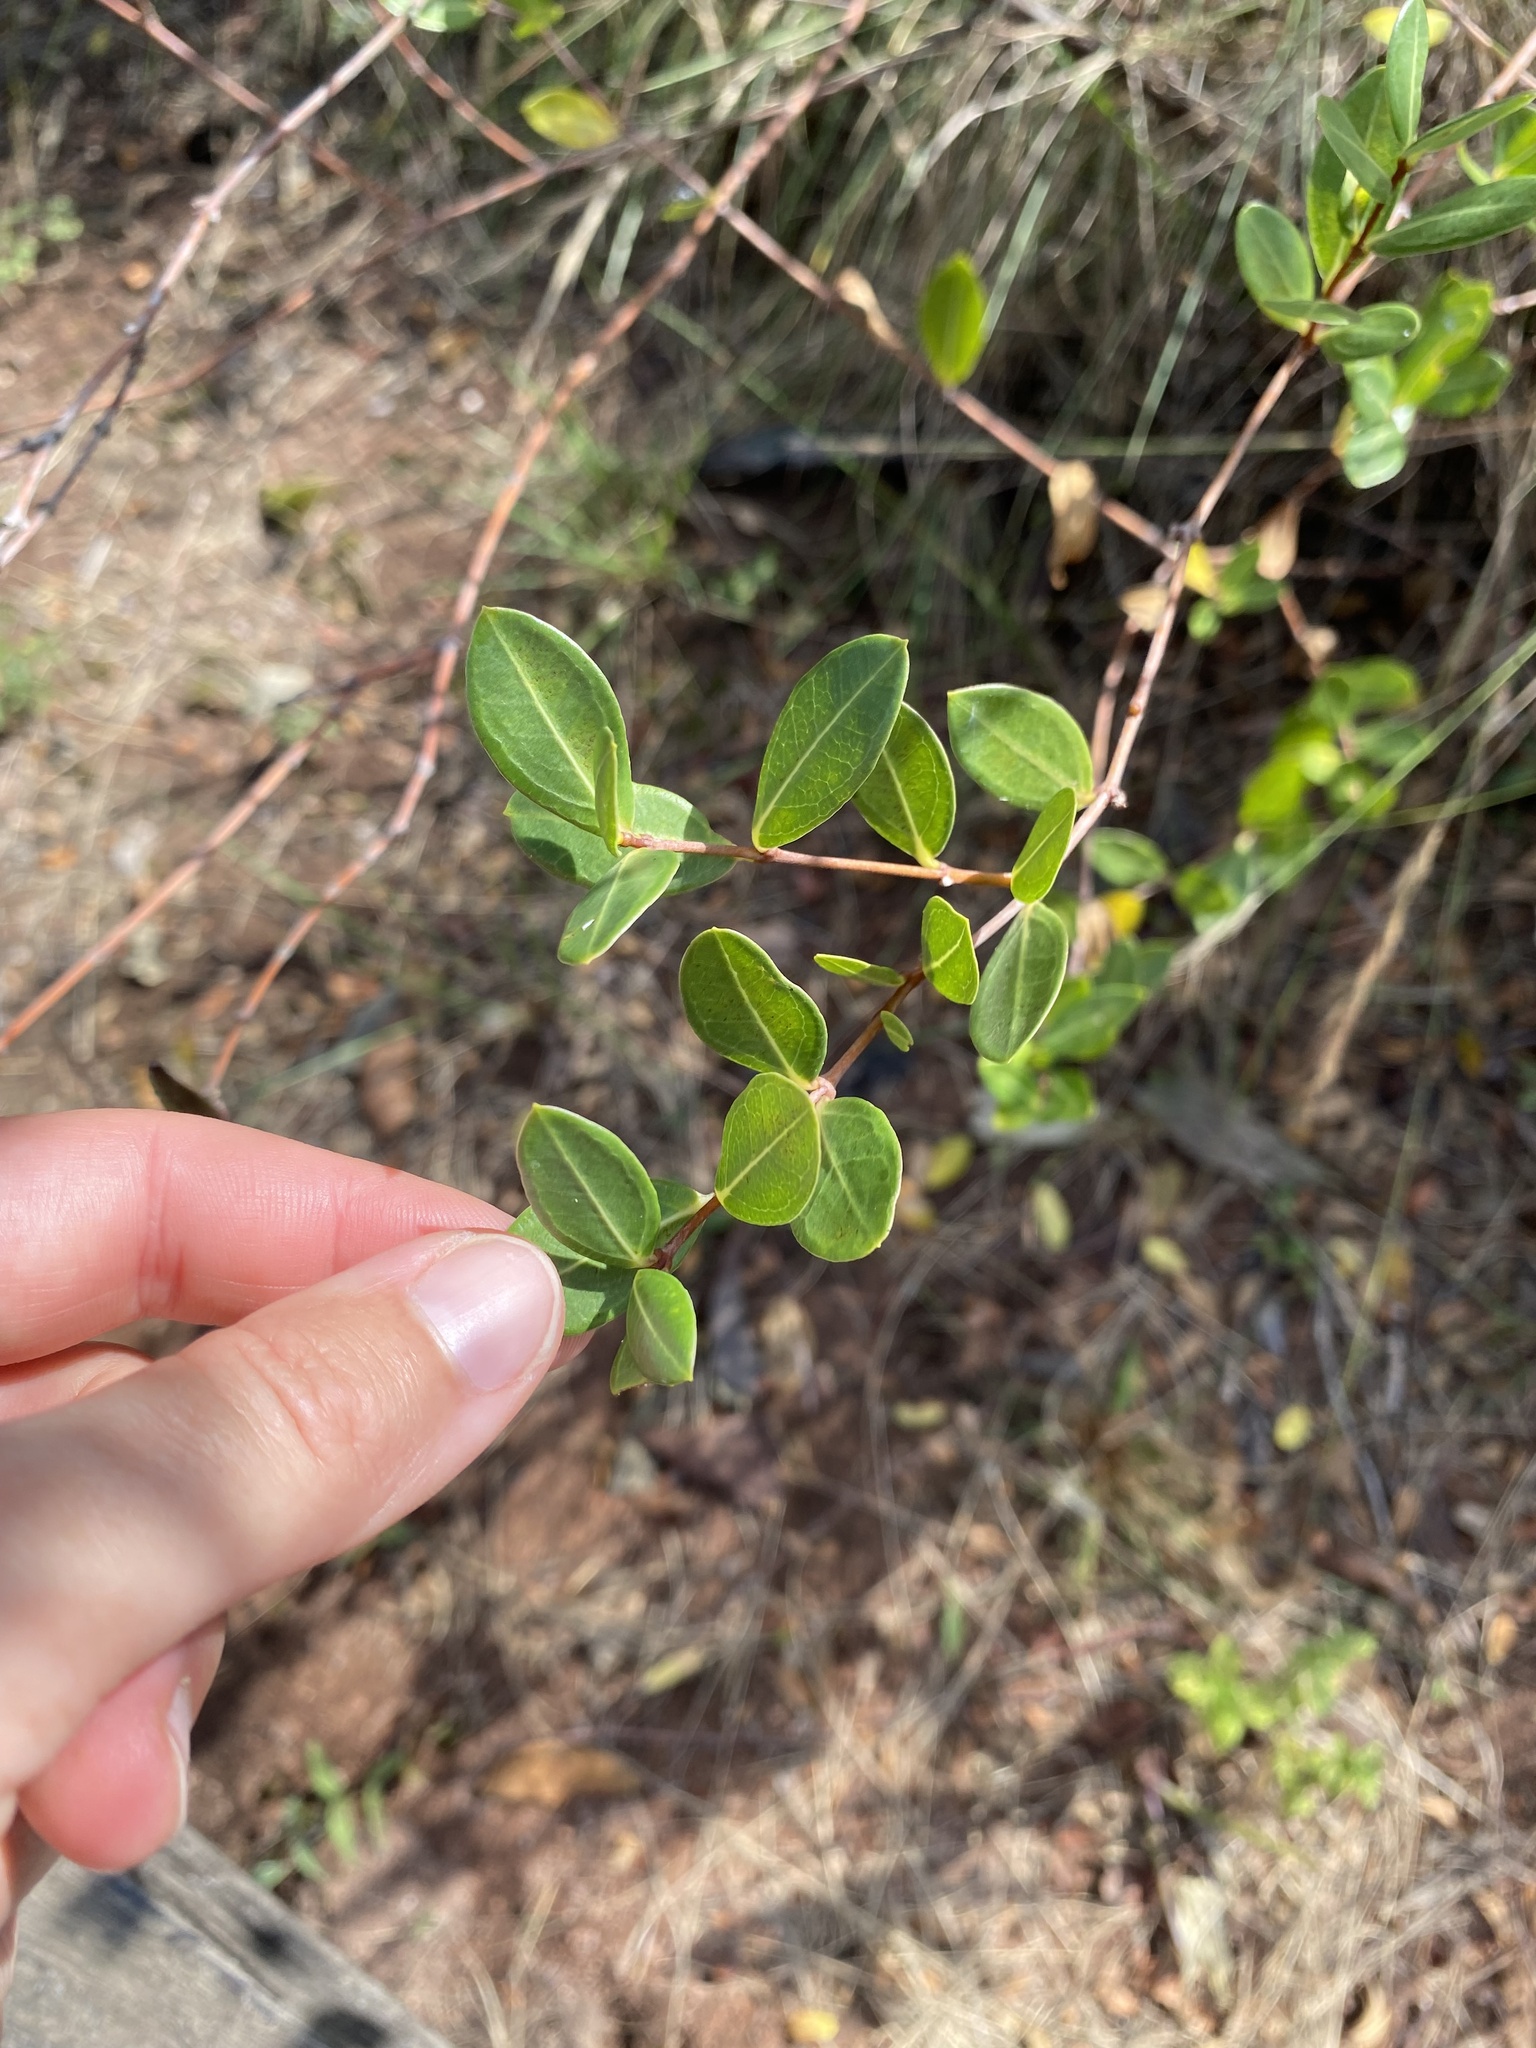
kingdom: Plantae
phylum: Tracheophyta
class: Magnoliopsida
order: Gentianales
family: Apocynaceae
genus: Cryptolepis
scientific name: Cryptolepis oblongifolia
